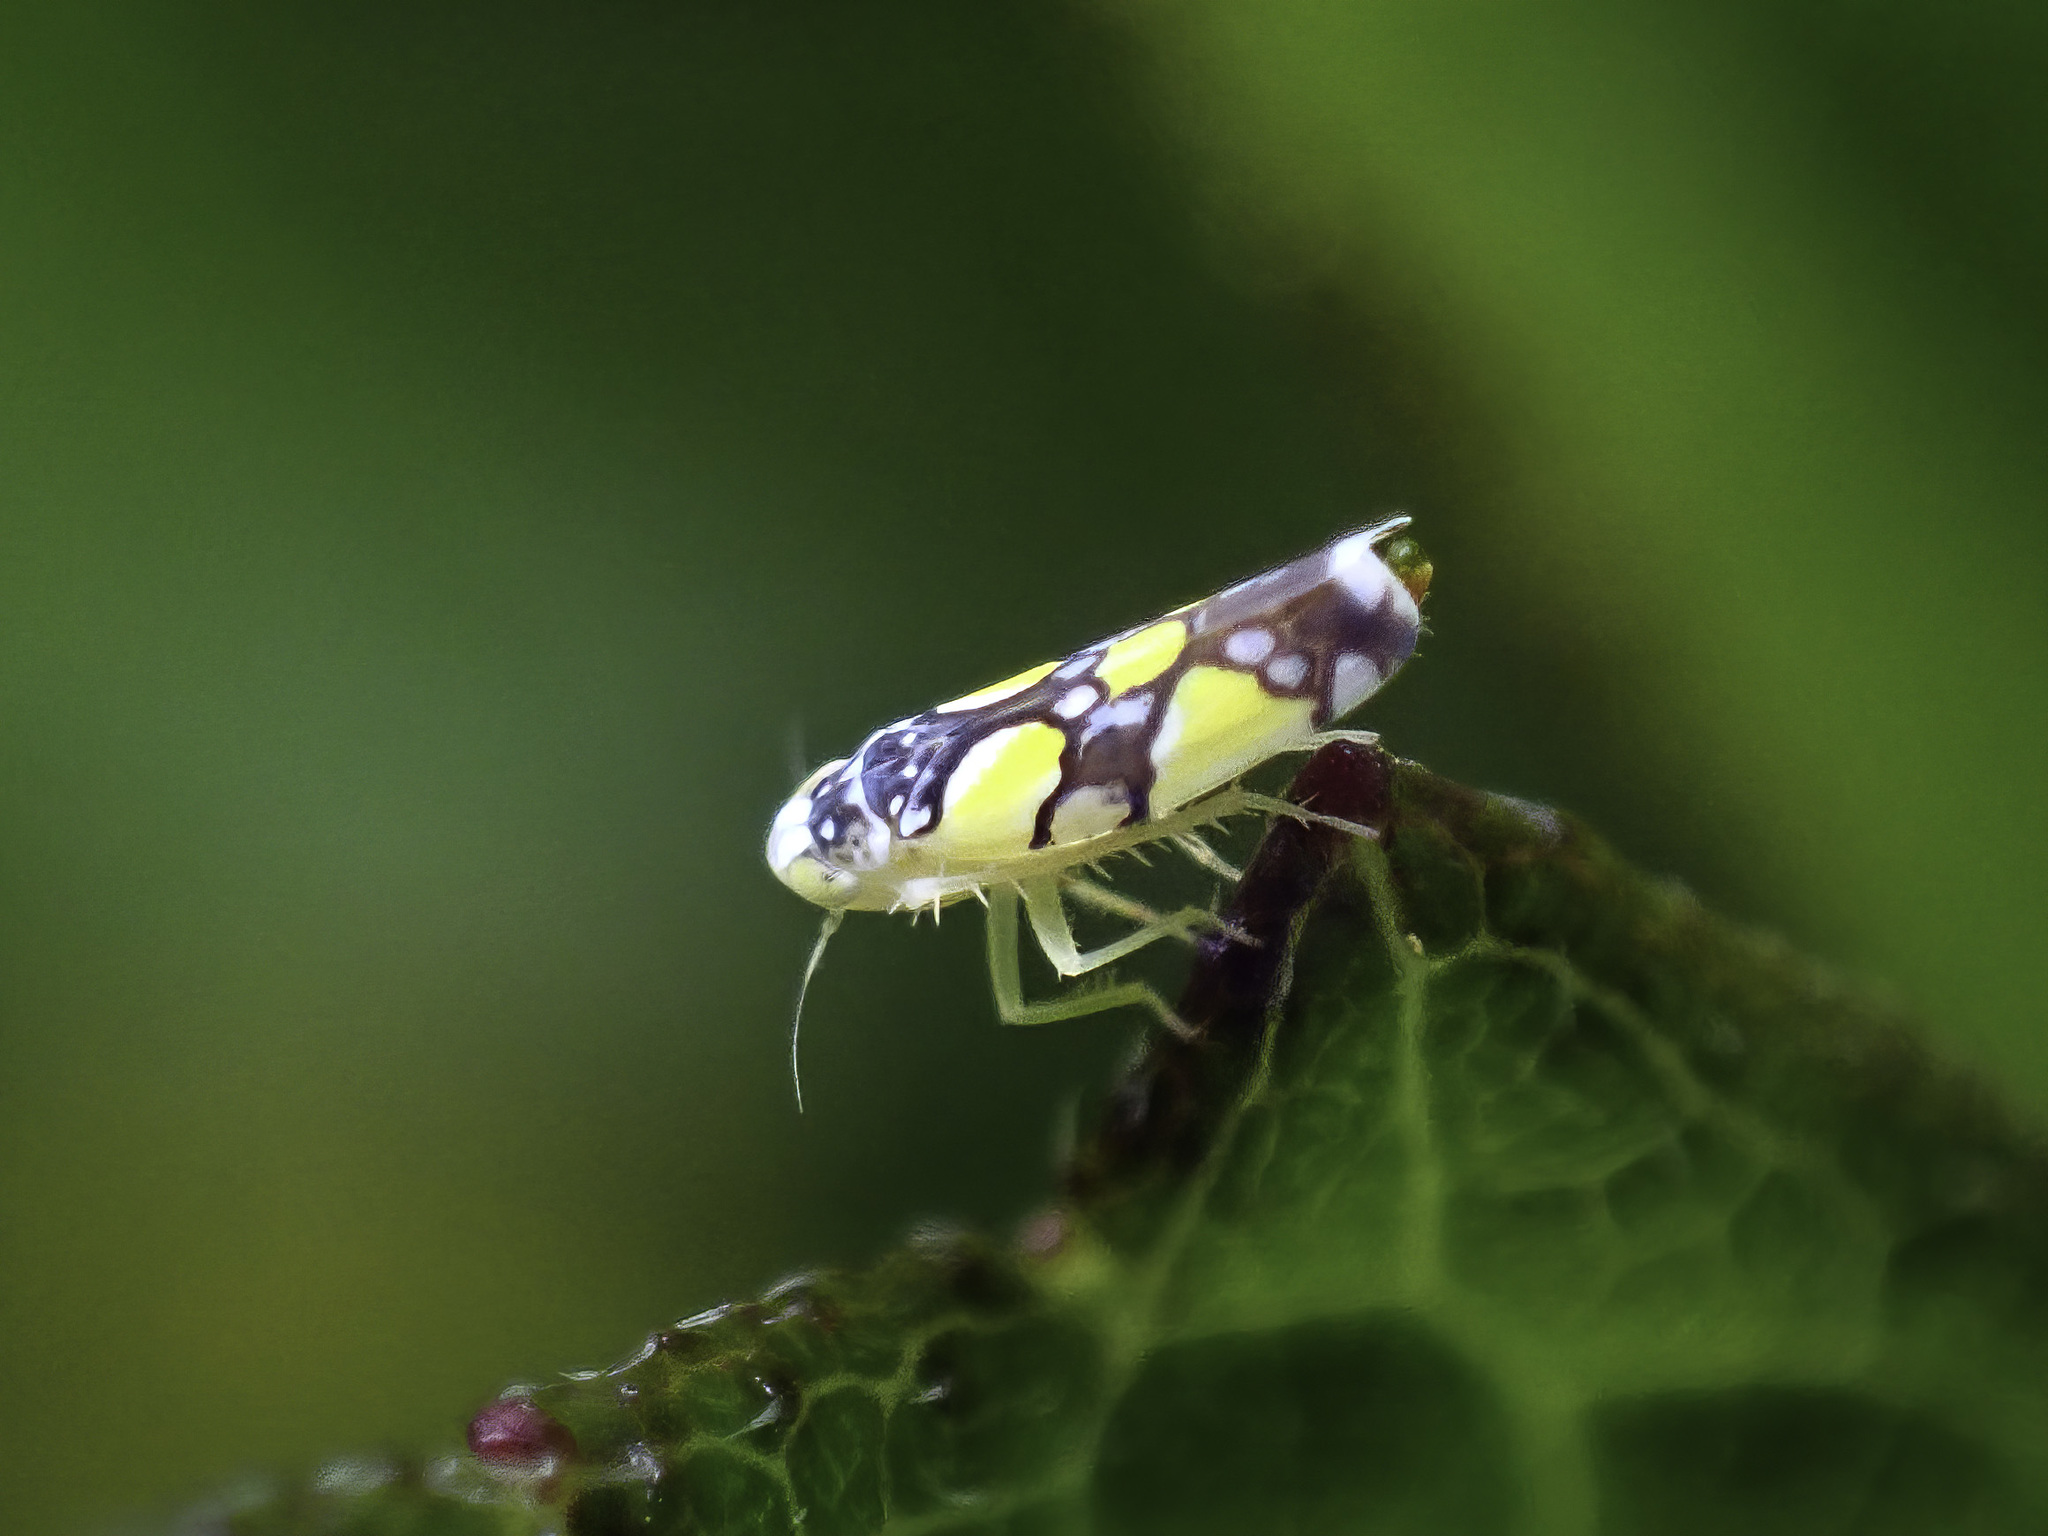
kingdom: Animalia
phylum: Arthropoda
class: Insecta
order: Hemiptera
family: Cicadellidae
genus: Protalebrella
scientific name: Protalebrella brasiliensis
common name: Brasilian leafhopper
